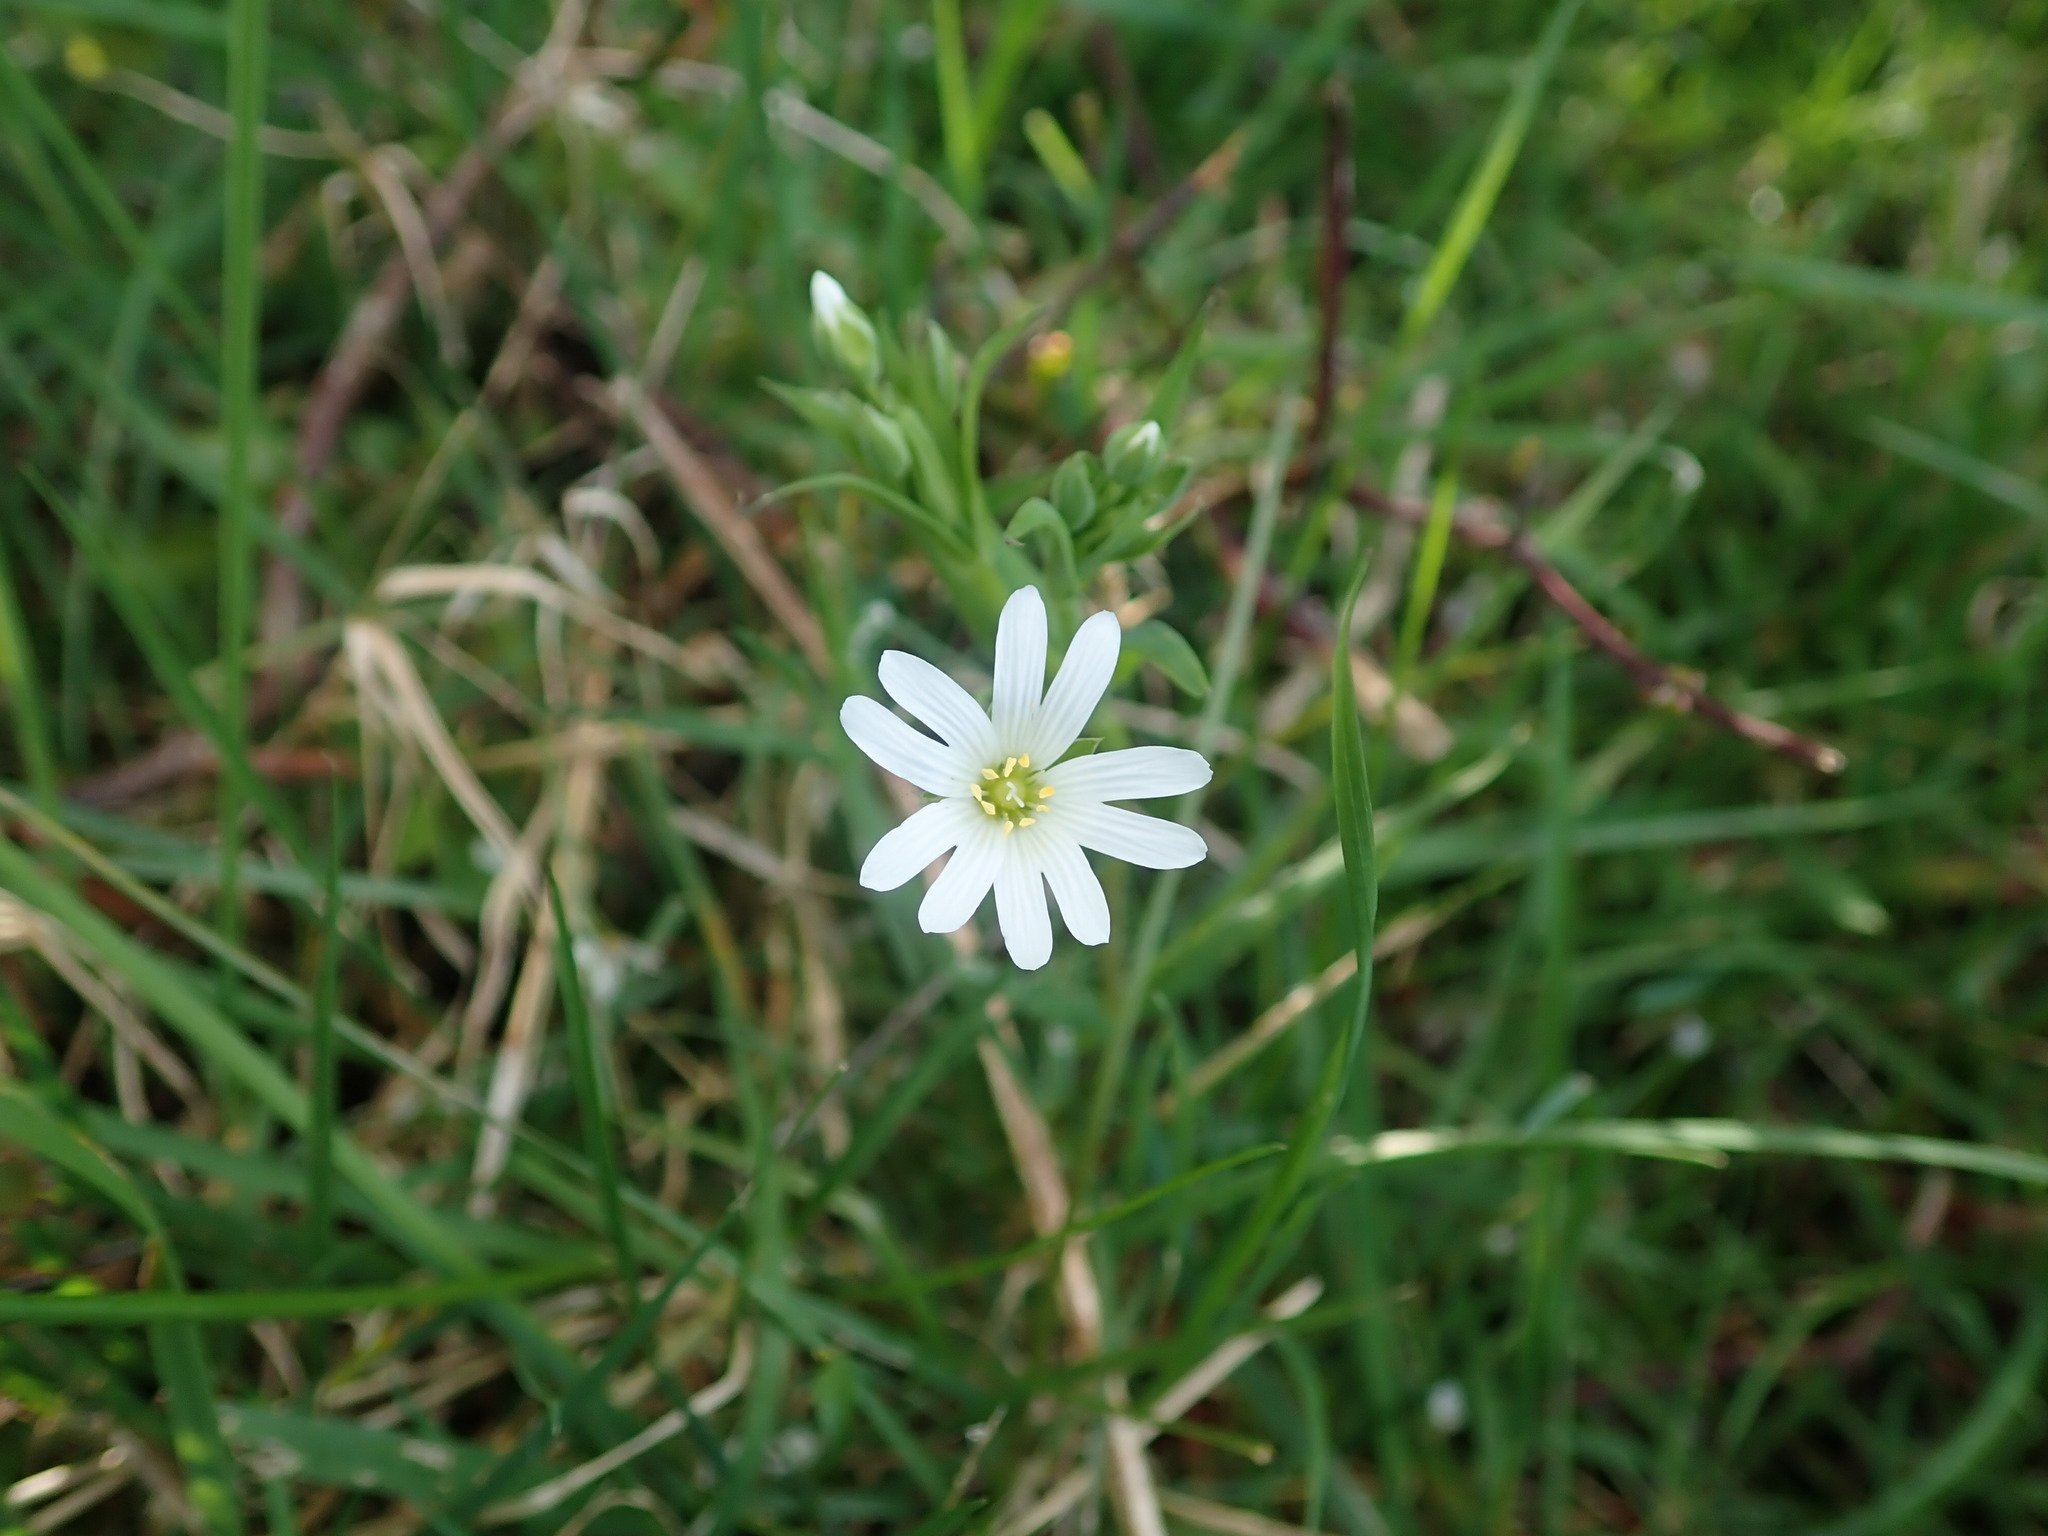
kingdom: Plantae
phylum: Tracheophyta
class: Magnoliopsida
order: Caryophyllales
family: Caryophyllaceae
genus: Rabelera
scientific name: Rabelera holostea
